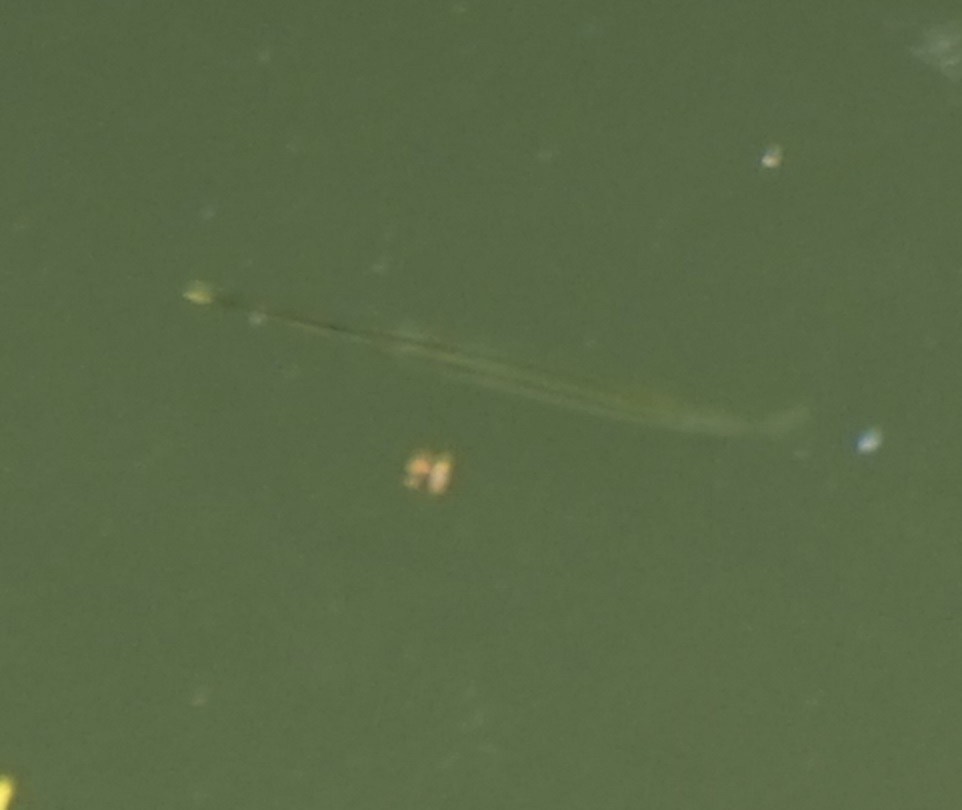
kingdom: Animalia
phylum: Chordata
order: Beloniformes
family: Zenarchopteridae
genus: Zenarchopterus
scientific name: Zenarchopterus buffonis
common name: Buffon's river-garfish
